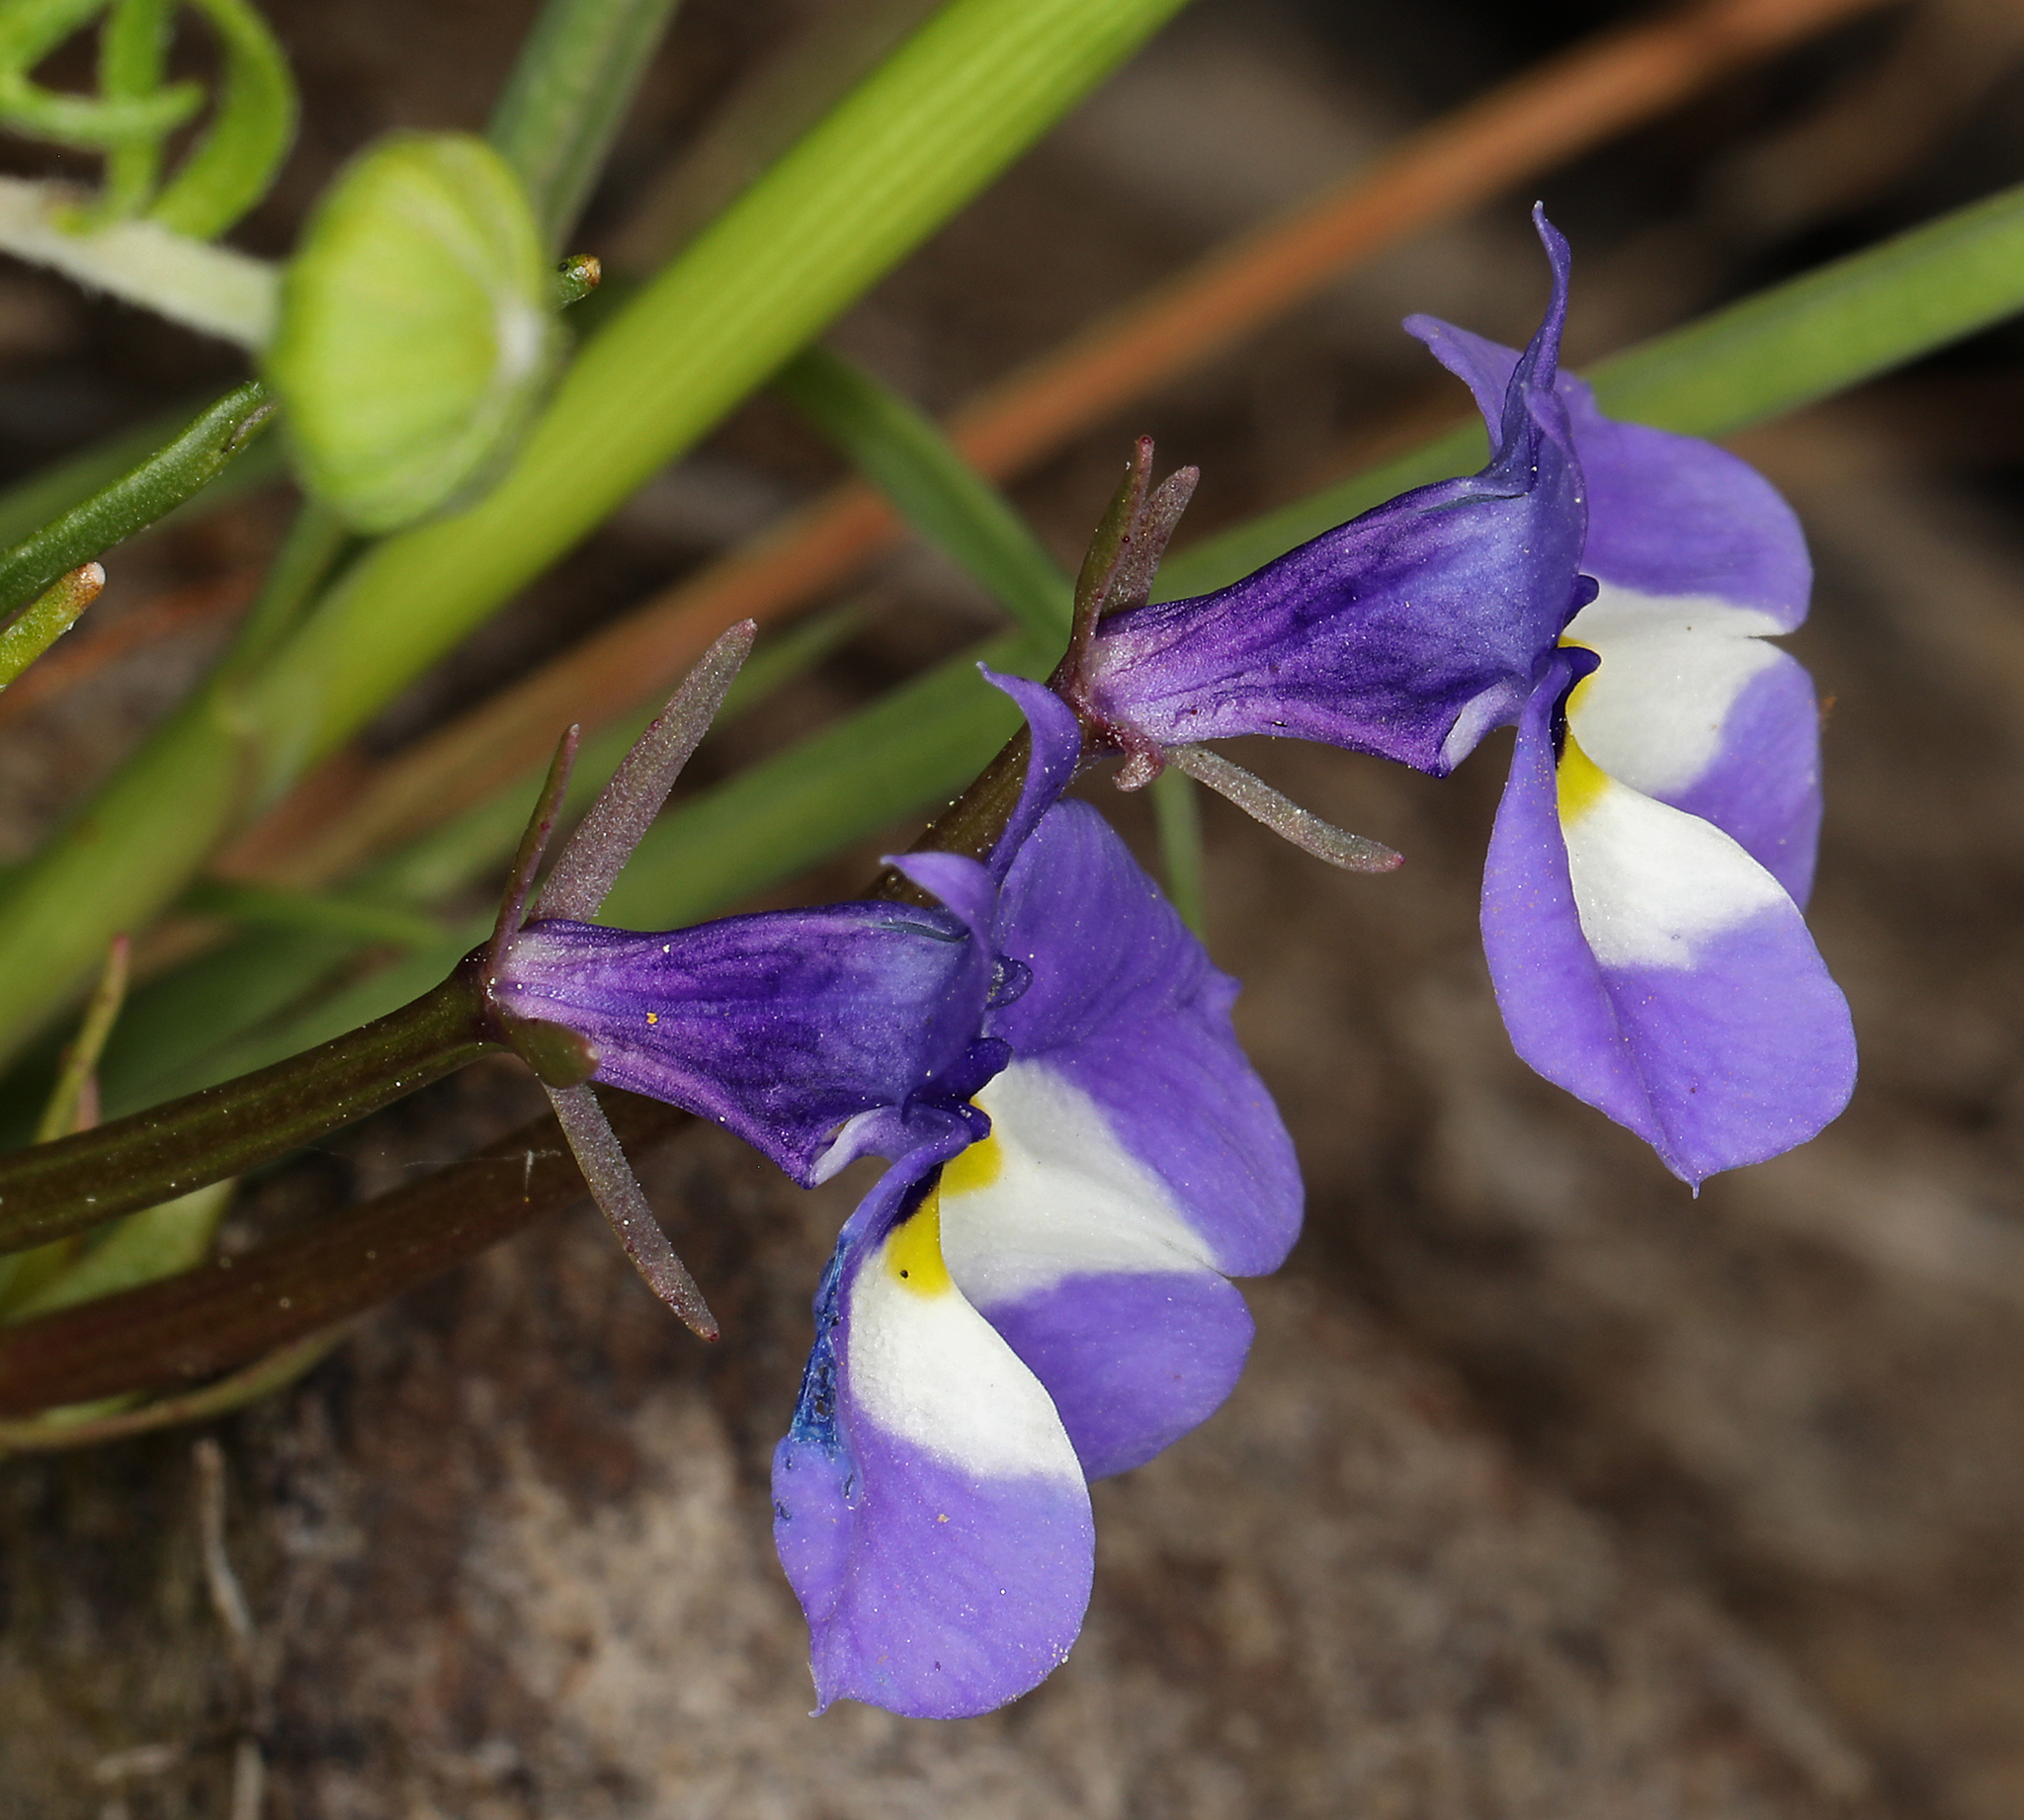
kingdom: Plantae
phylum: Tracheophyta
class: Magnoliopsida
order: Asterales
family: Campanulaceae
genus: Downingia
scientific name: Downingia bicornuta
